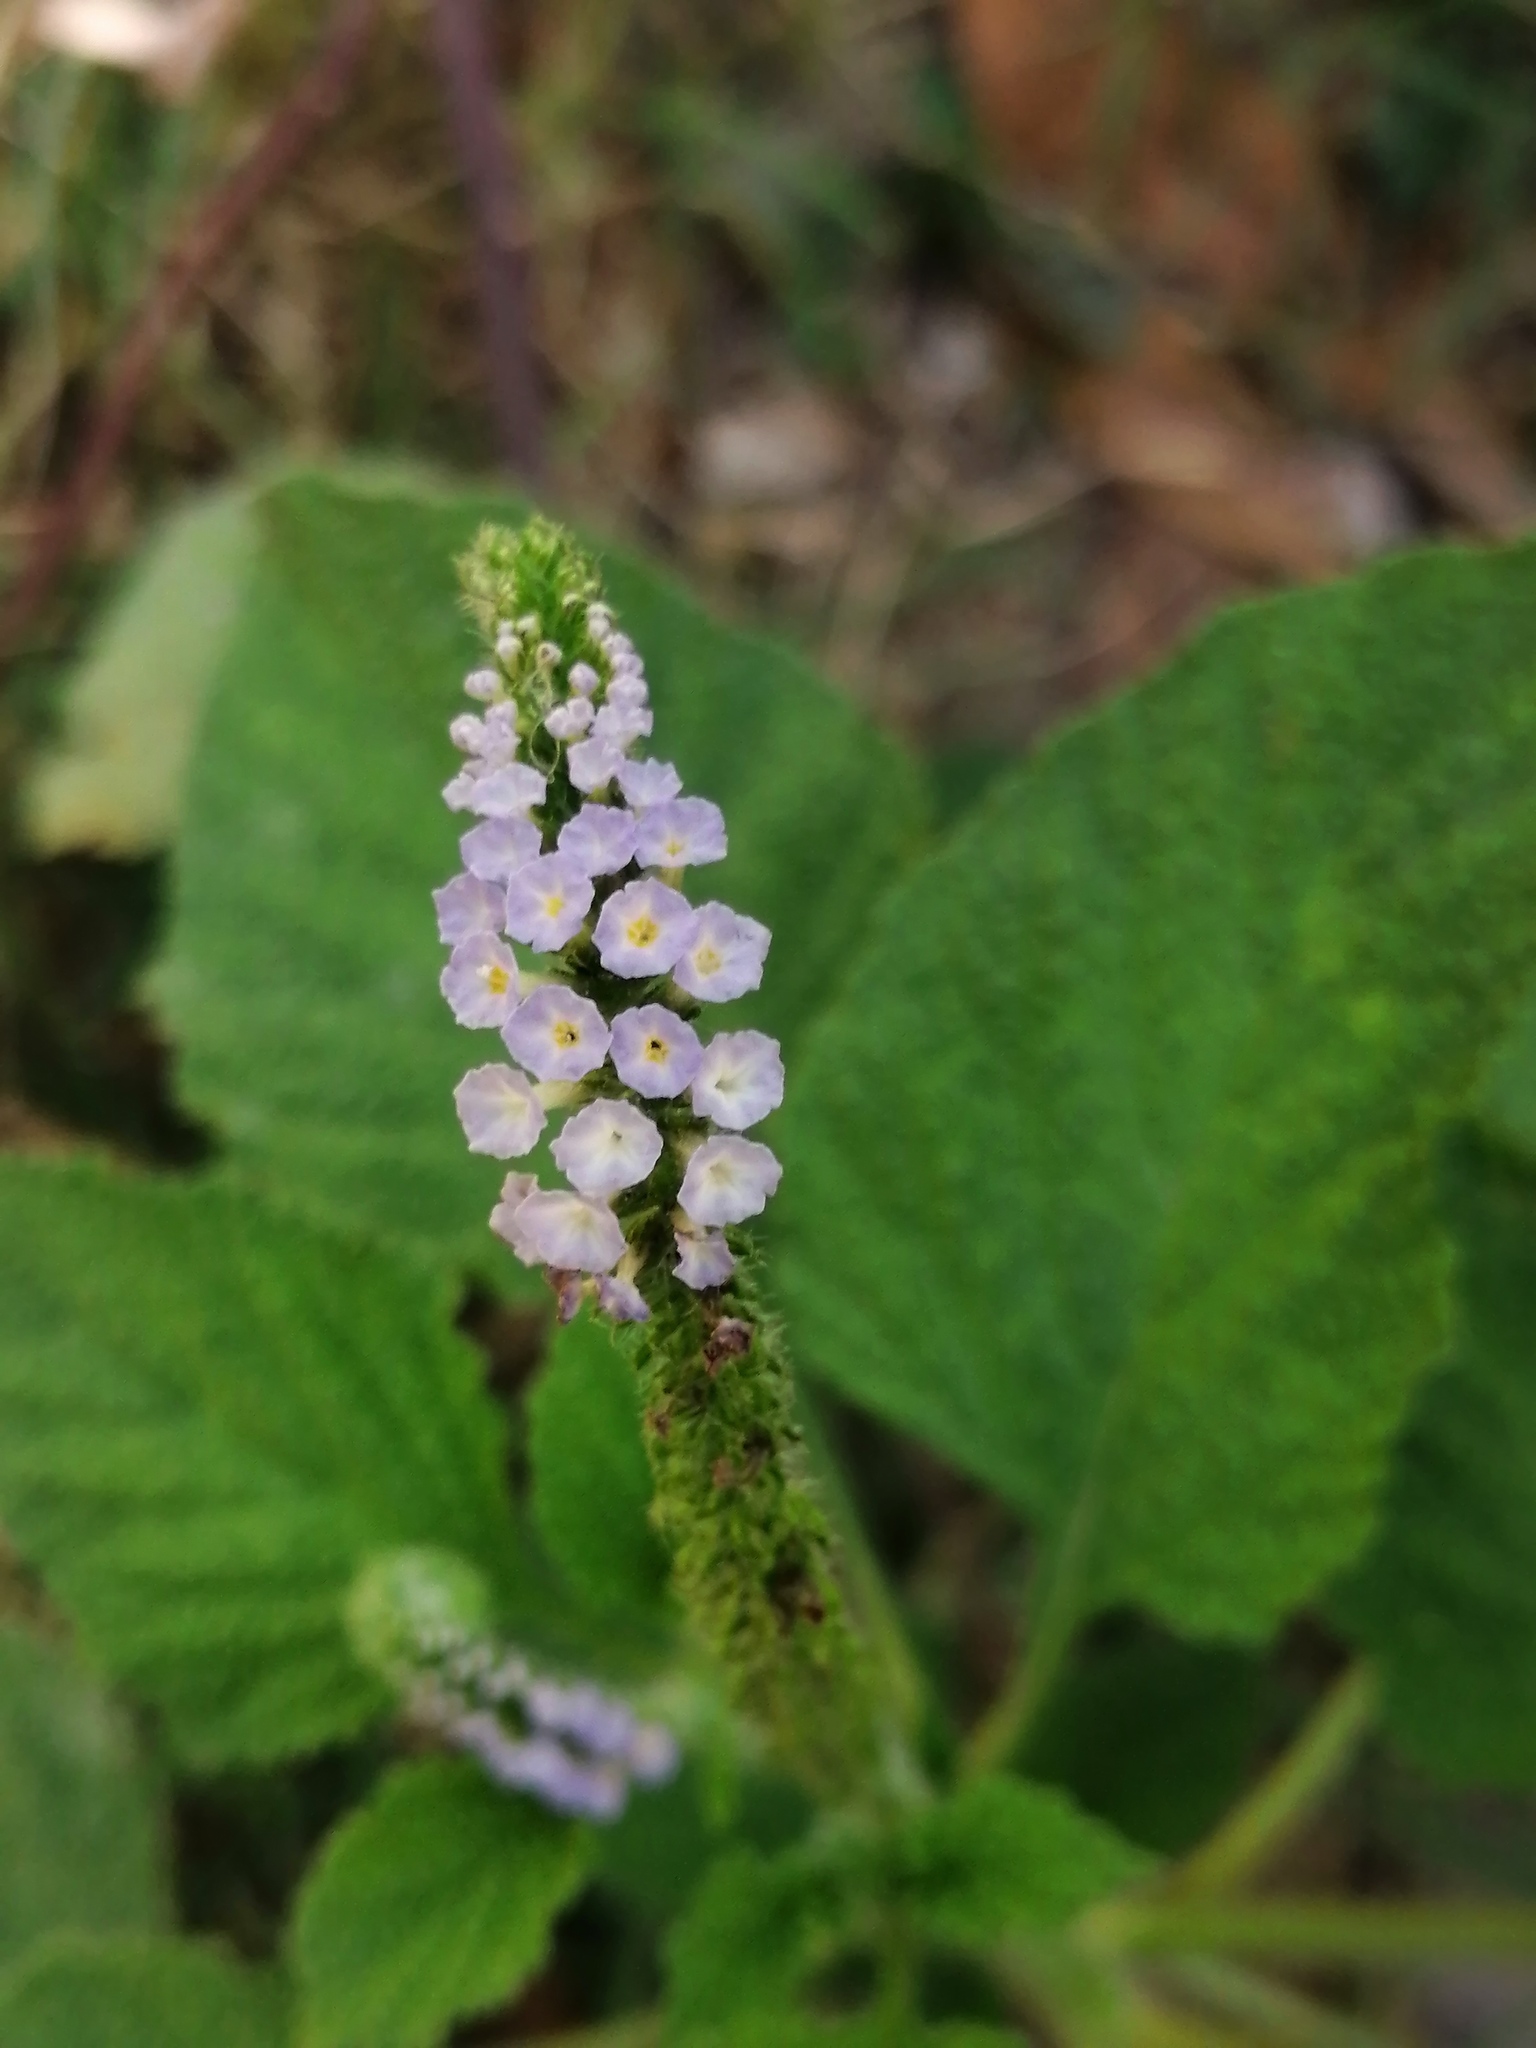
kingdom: Plantae
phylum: Tracheophyta
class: Magnoliopsida
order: Boraginales
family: Heliotropiaceae
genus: Heliotropium
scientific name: Heliotropium indicum
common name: Indian heliotrope
